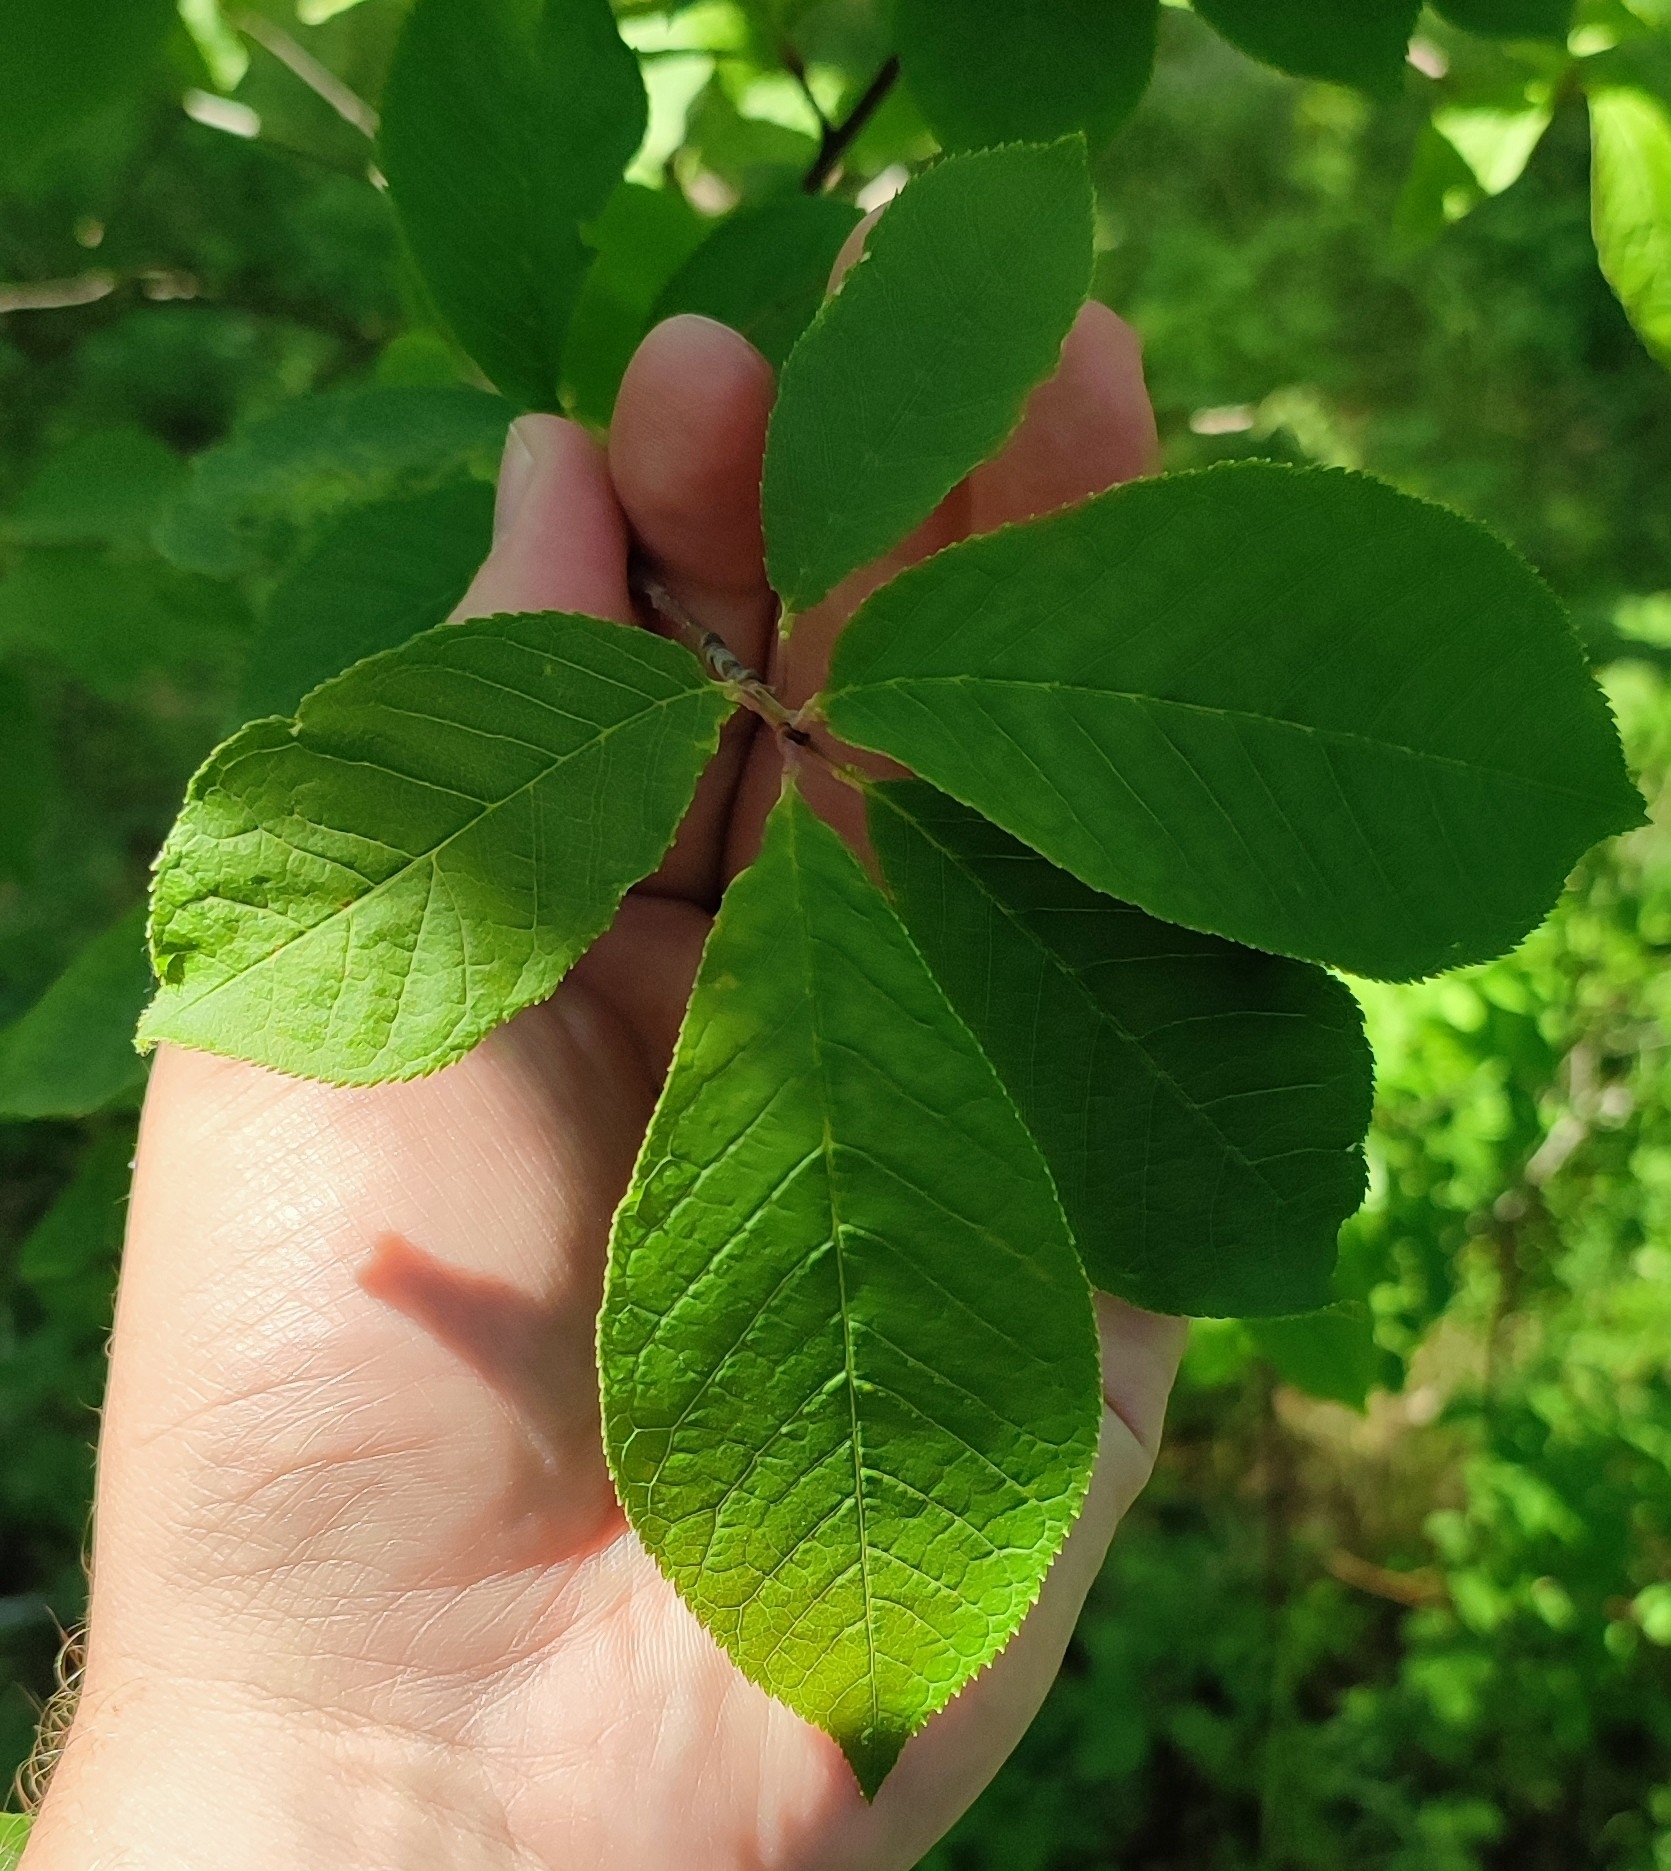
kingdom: Plantae
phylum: Tracheophyta
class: Magnoliopsida
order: Rosales
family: Rosaceae
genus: Prunus
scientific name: Prunus padus
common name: Bird cherry
